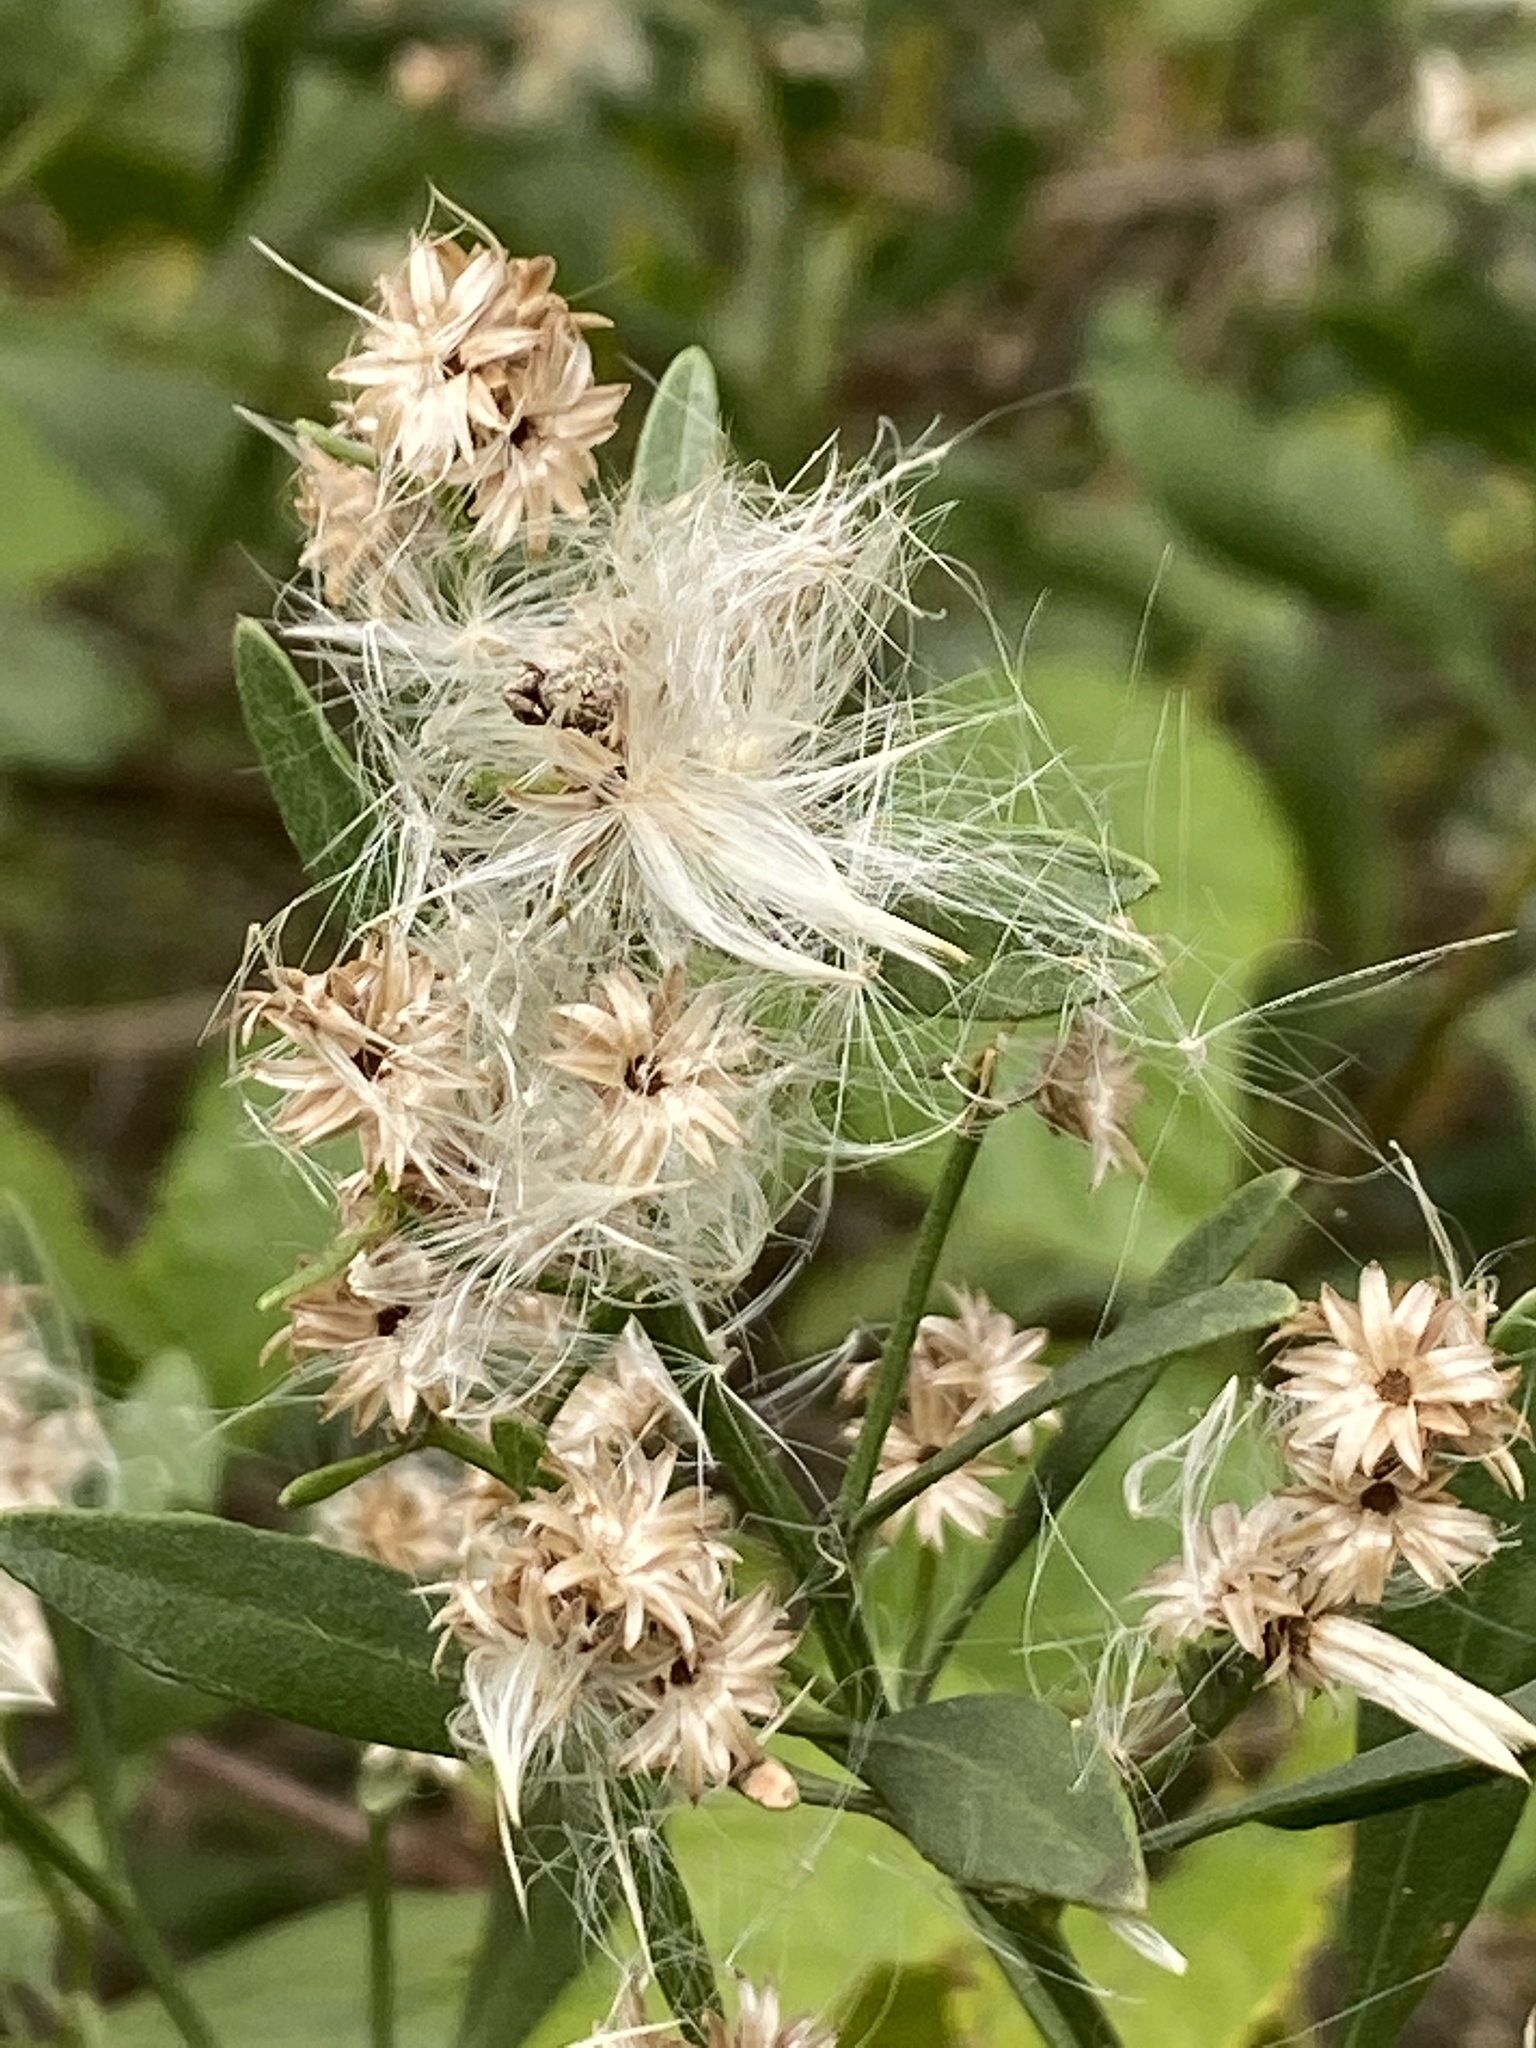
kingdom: Plantae
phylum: Tracheophyta
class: Magnoliopsida
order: Asterales
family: Asteraceae
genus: Baccharis
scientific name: Baccharis halimifolia
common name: Eastern baccharis
